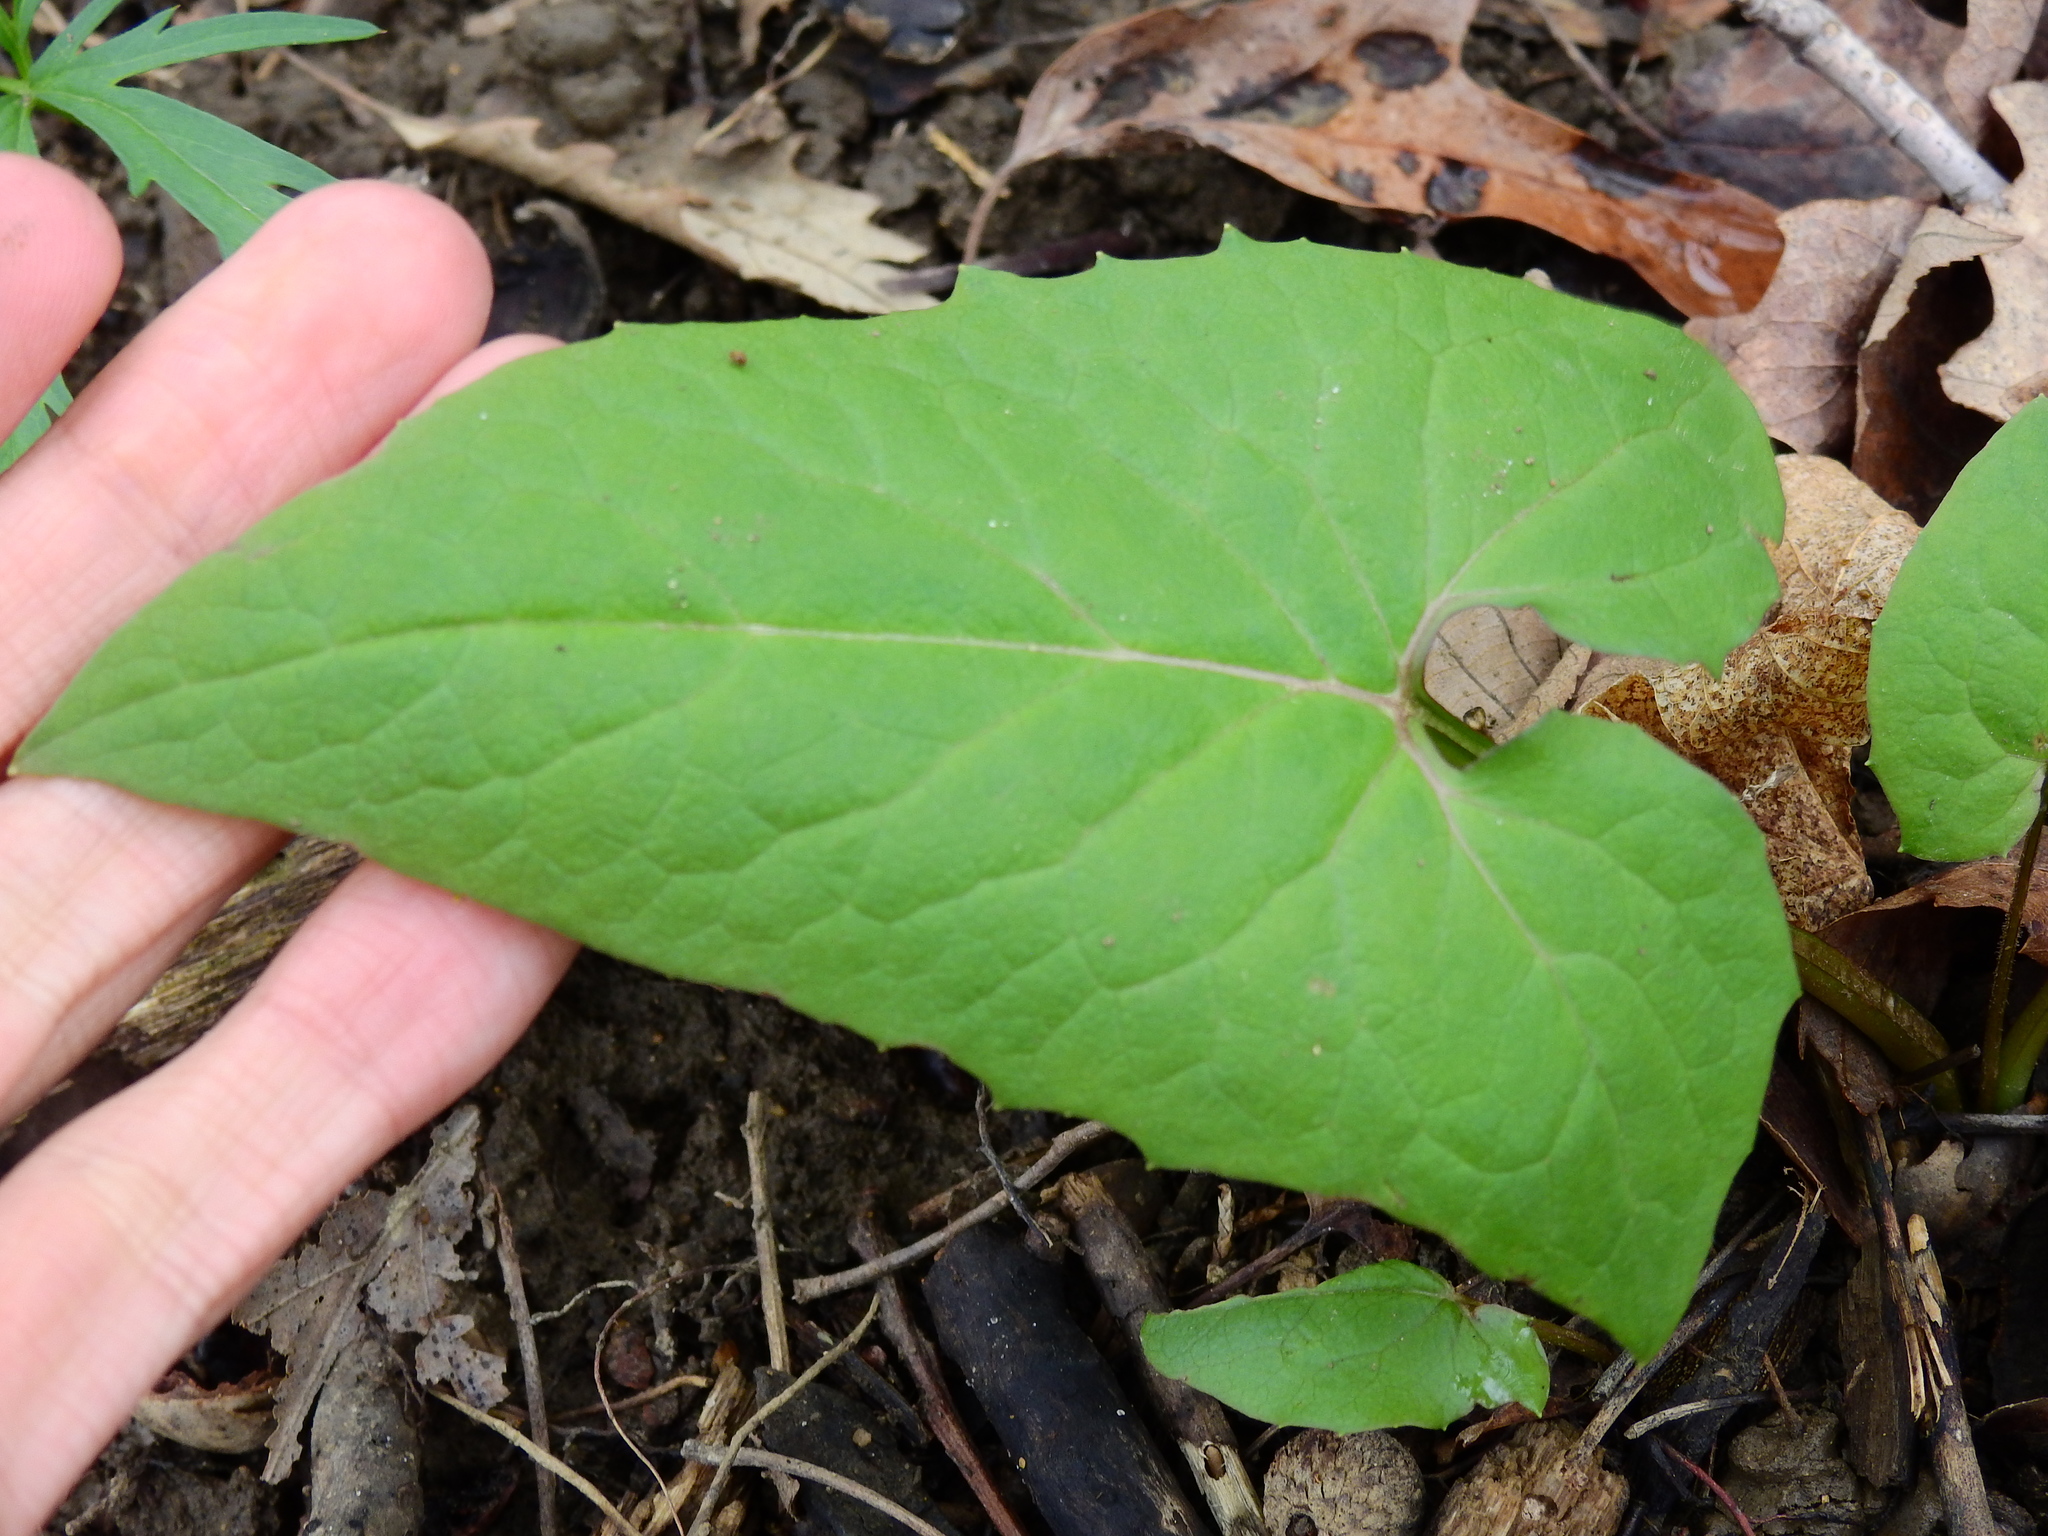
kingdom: Plantae
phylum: Tracheophyta
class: Magnoliopsida
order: Asterales
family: Asteraceae
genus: Nabalus
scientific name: Nabalus altissima
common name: Tall rattlesnakeroot
